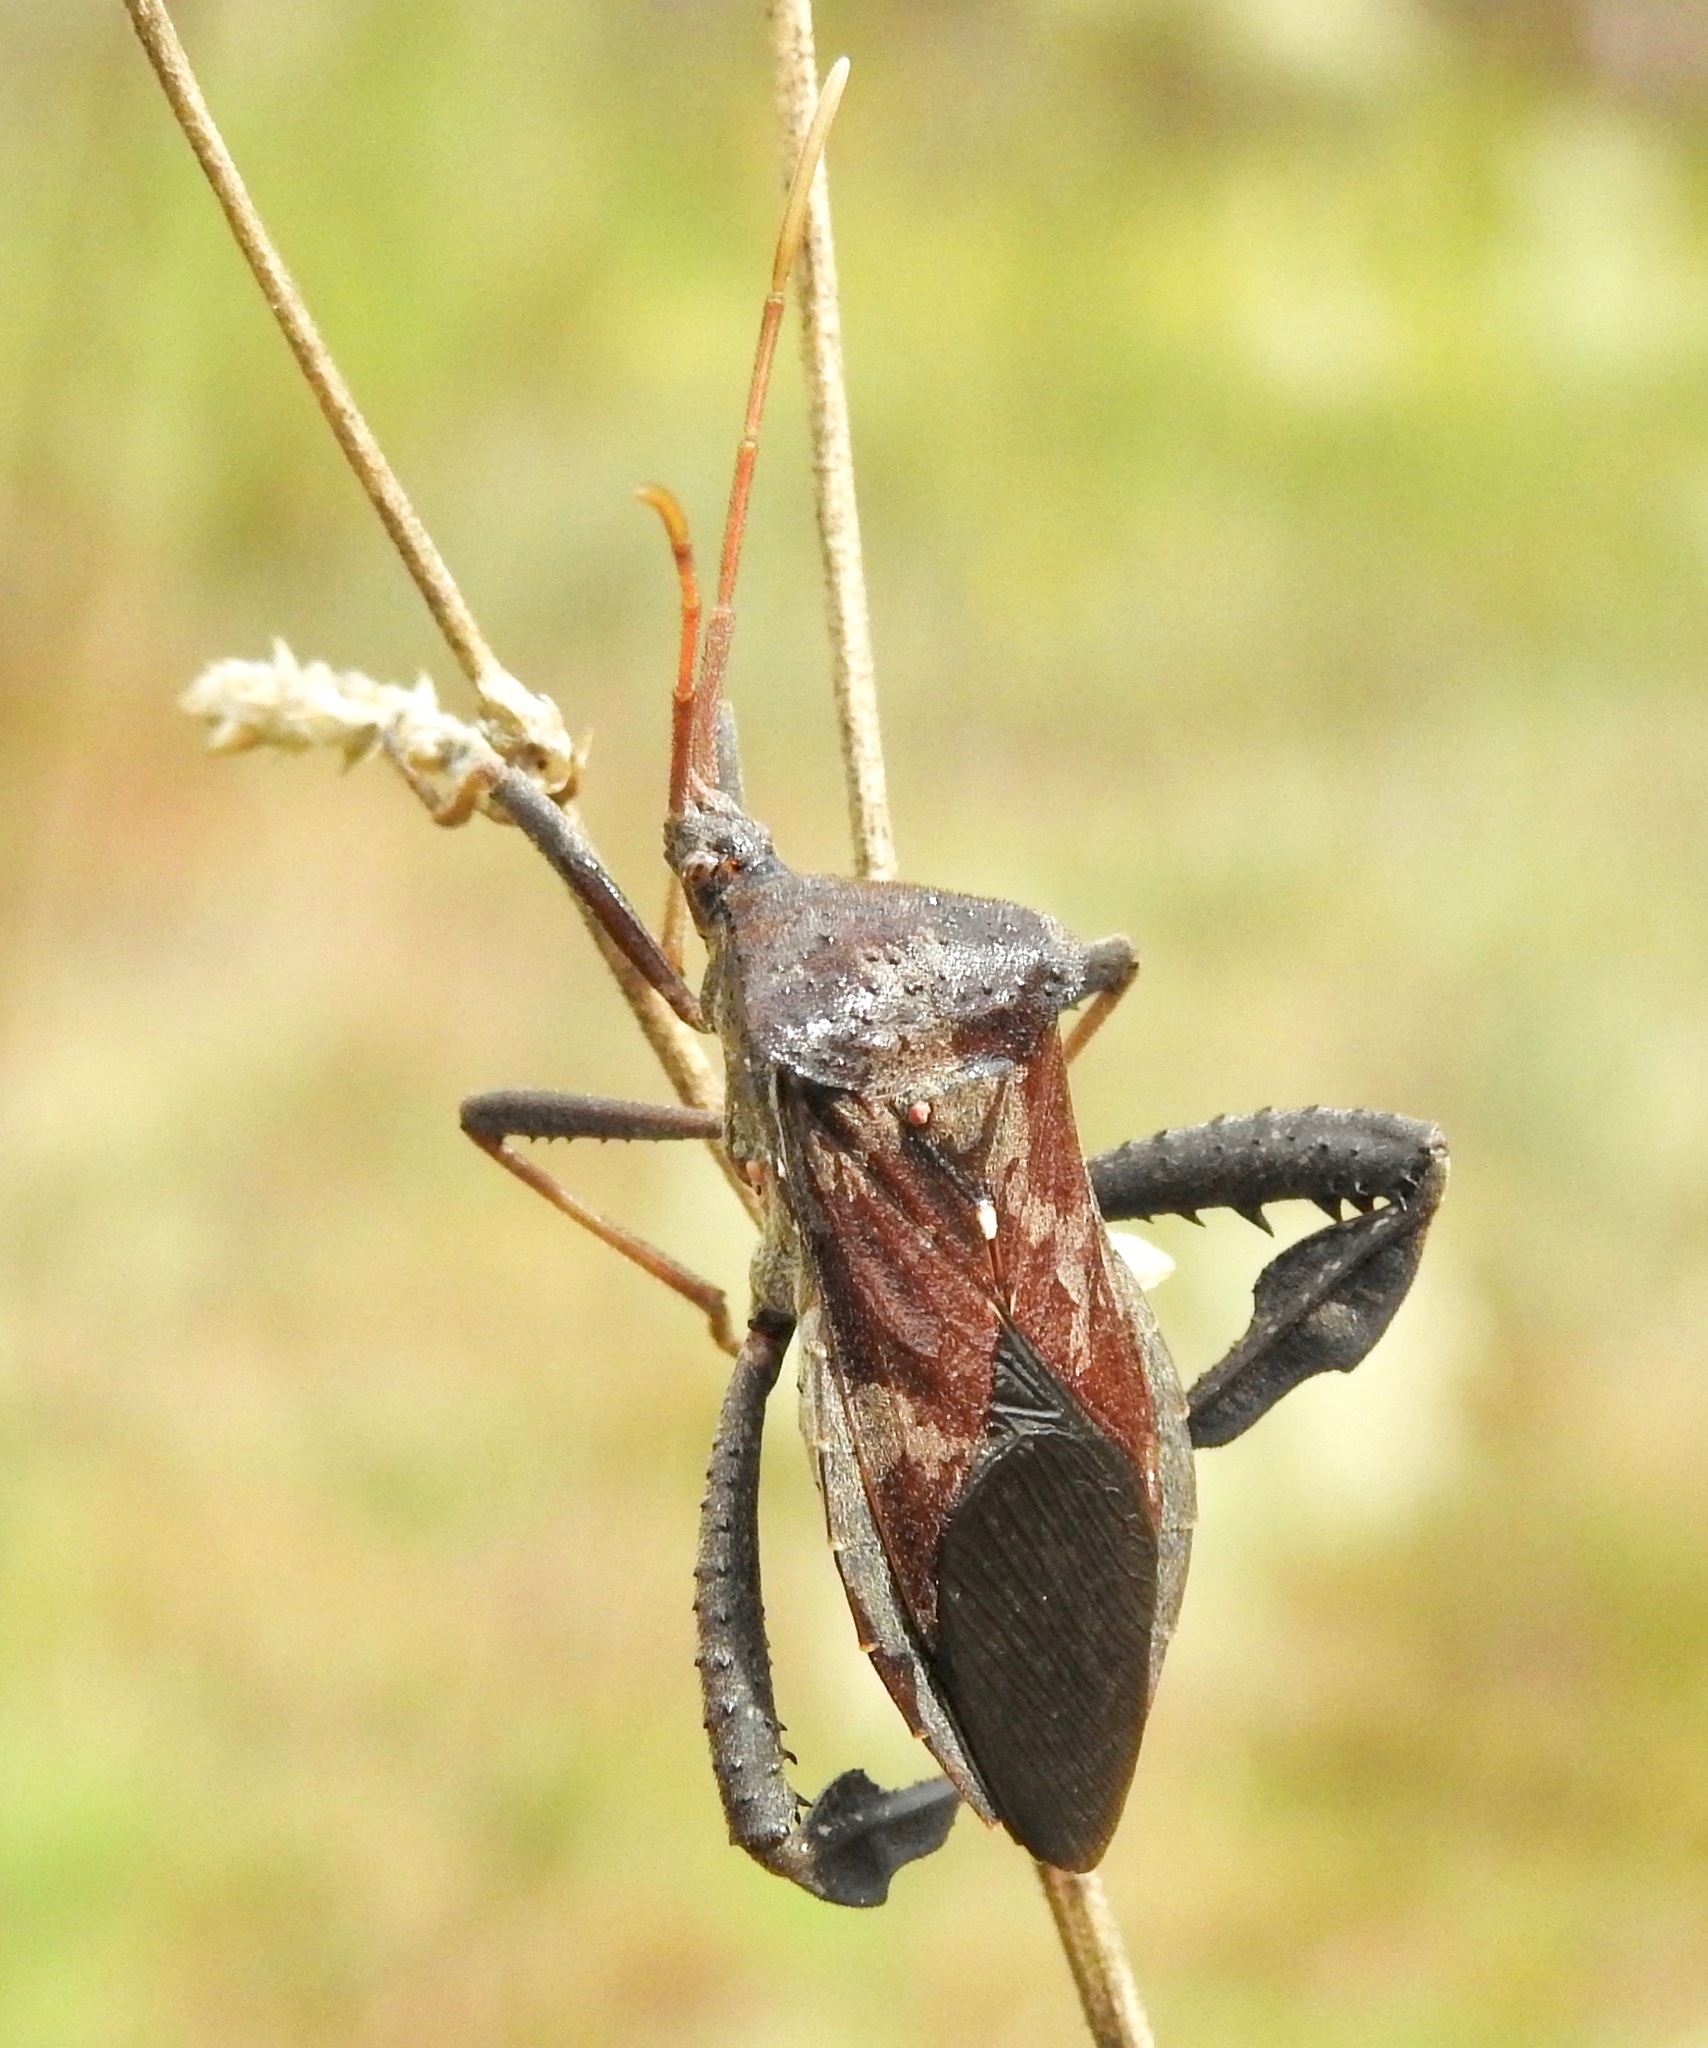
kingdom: Animalia
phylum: Arthropoda
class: Insecta
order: Hemiptera
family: Coreidae
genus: Acanthocephala
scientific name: Acanthocephala femorata
